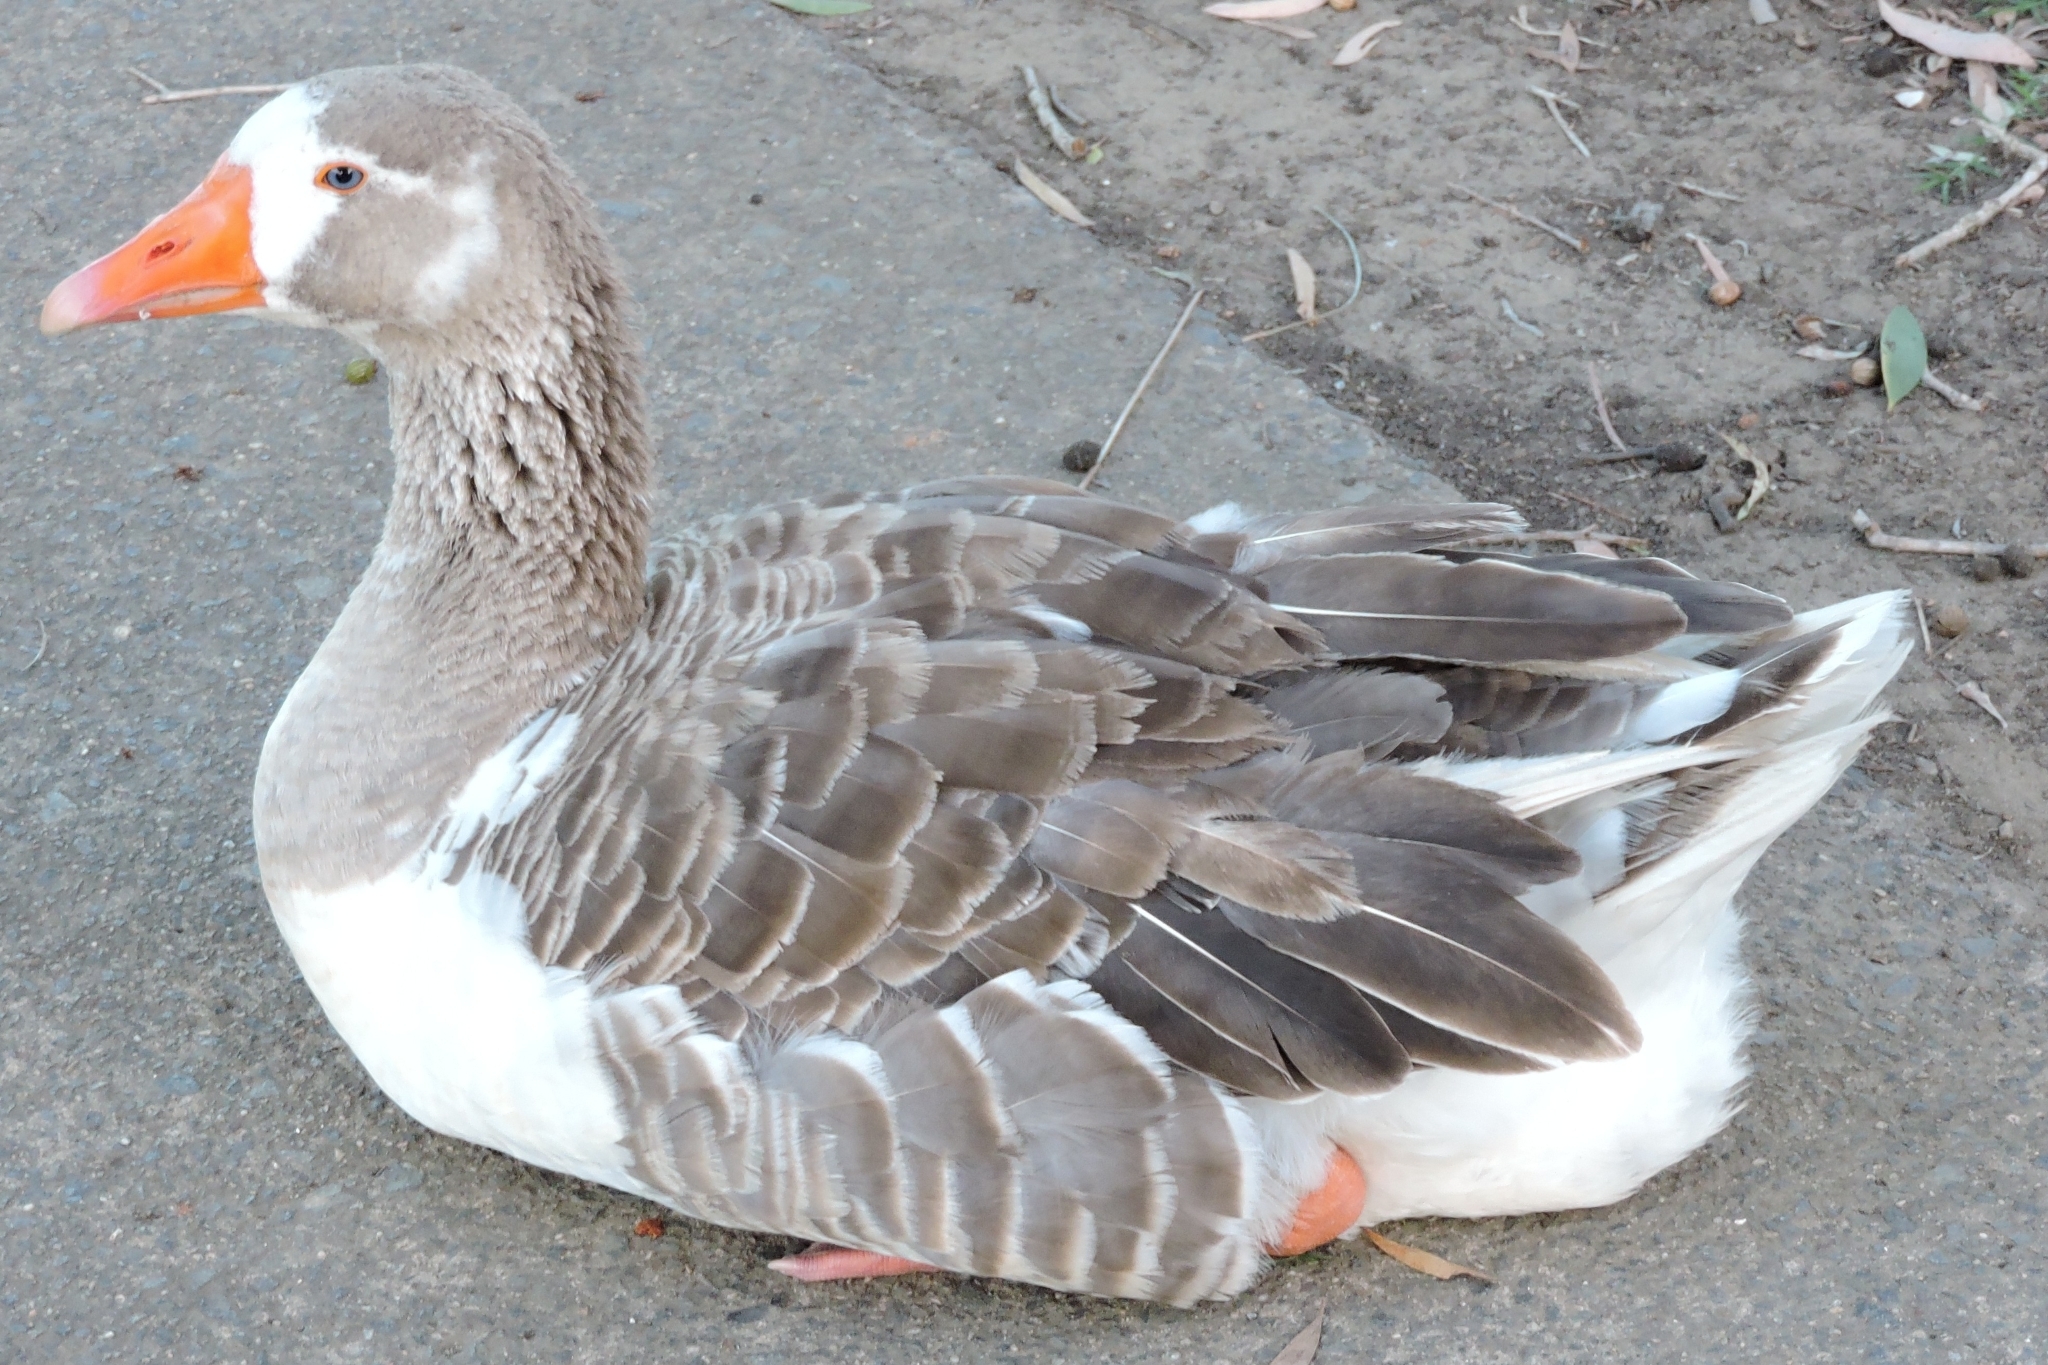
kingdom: Animalia
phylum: Chordata
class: Aves
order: Anseriformes
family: Anatidae
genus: Anser
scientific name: Anser anser
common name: Greylag goose
